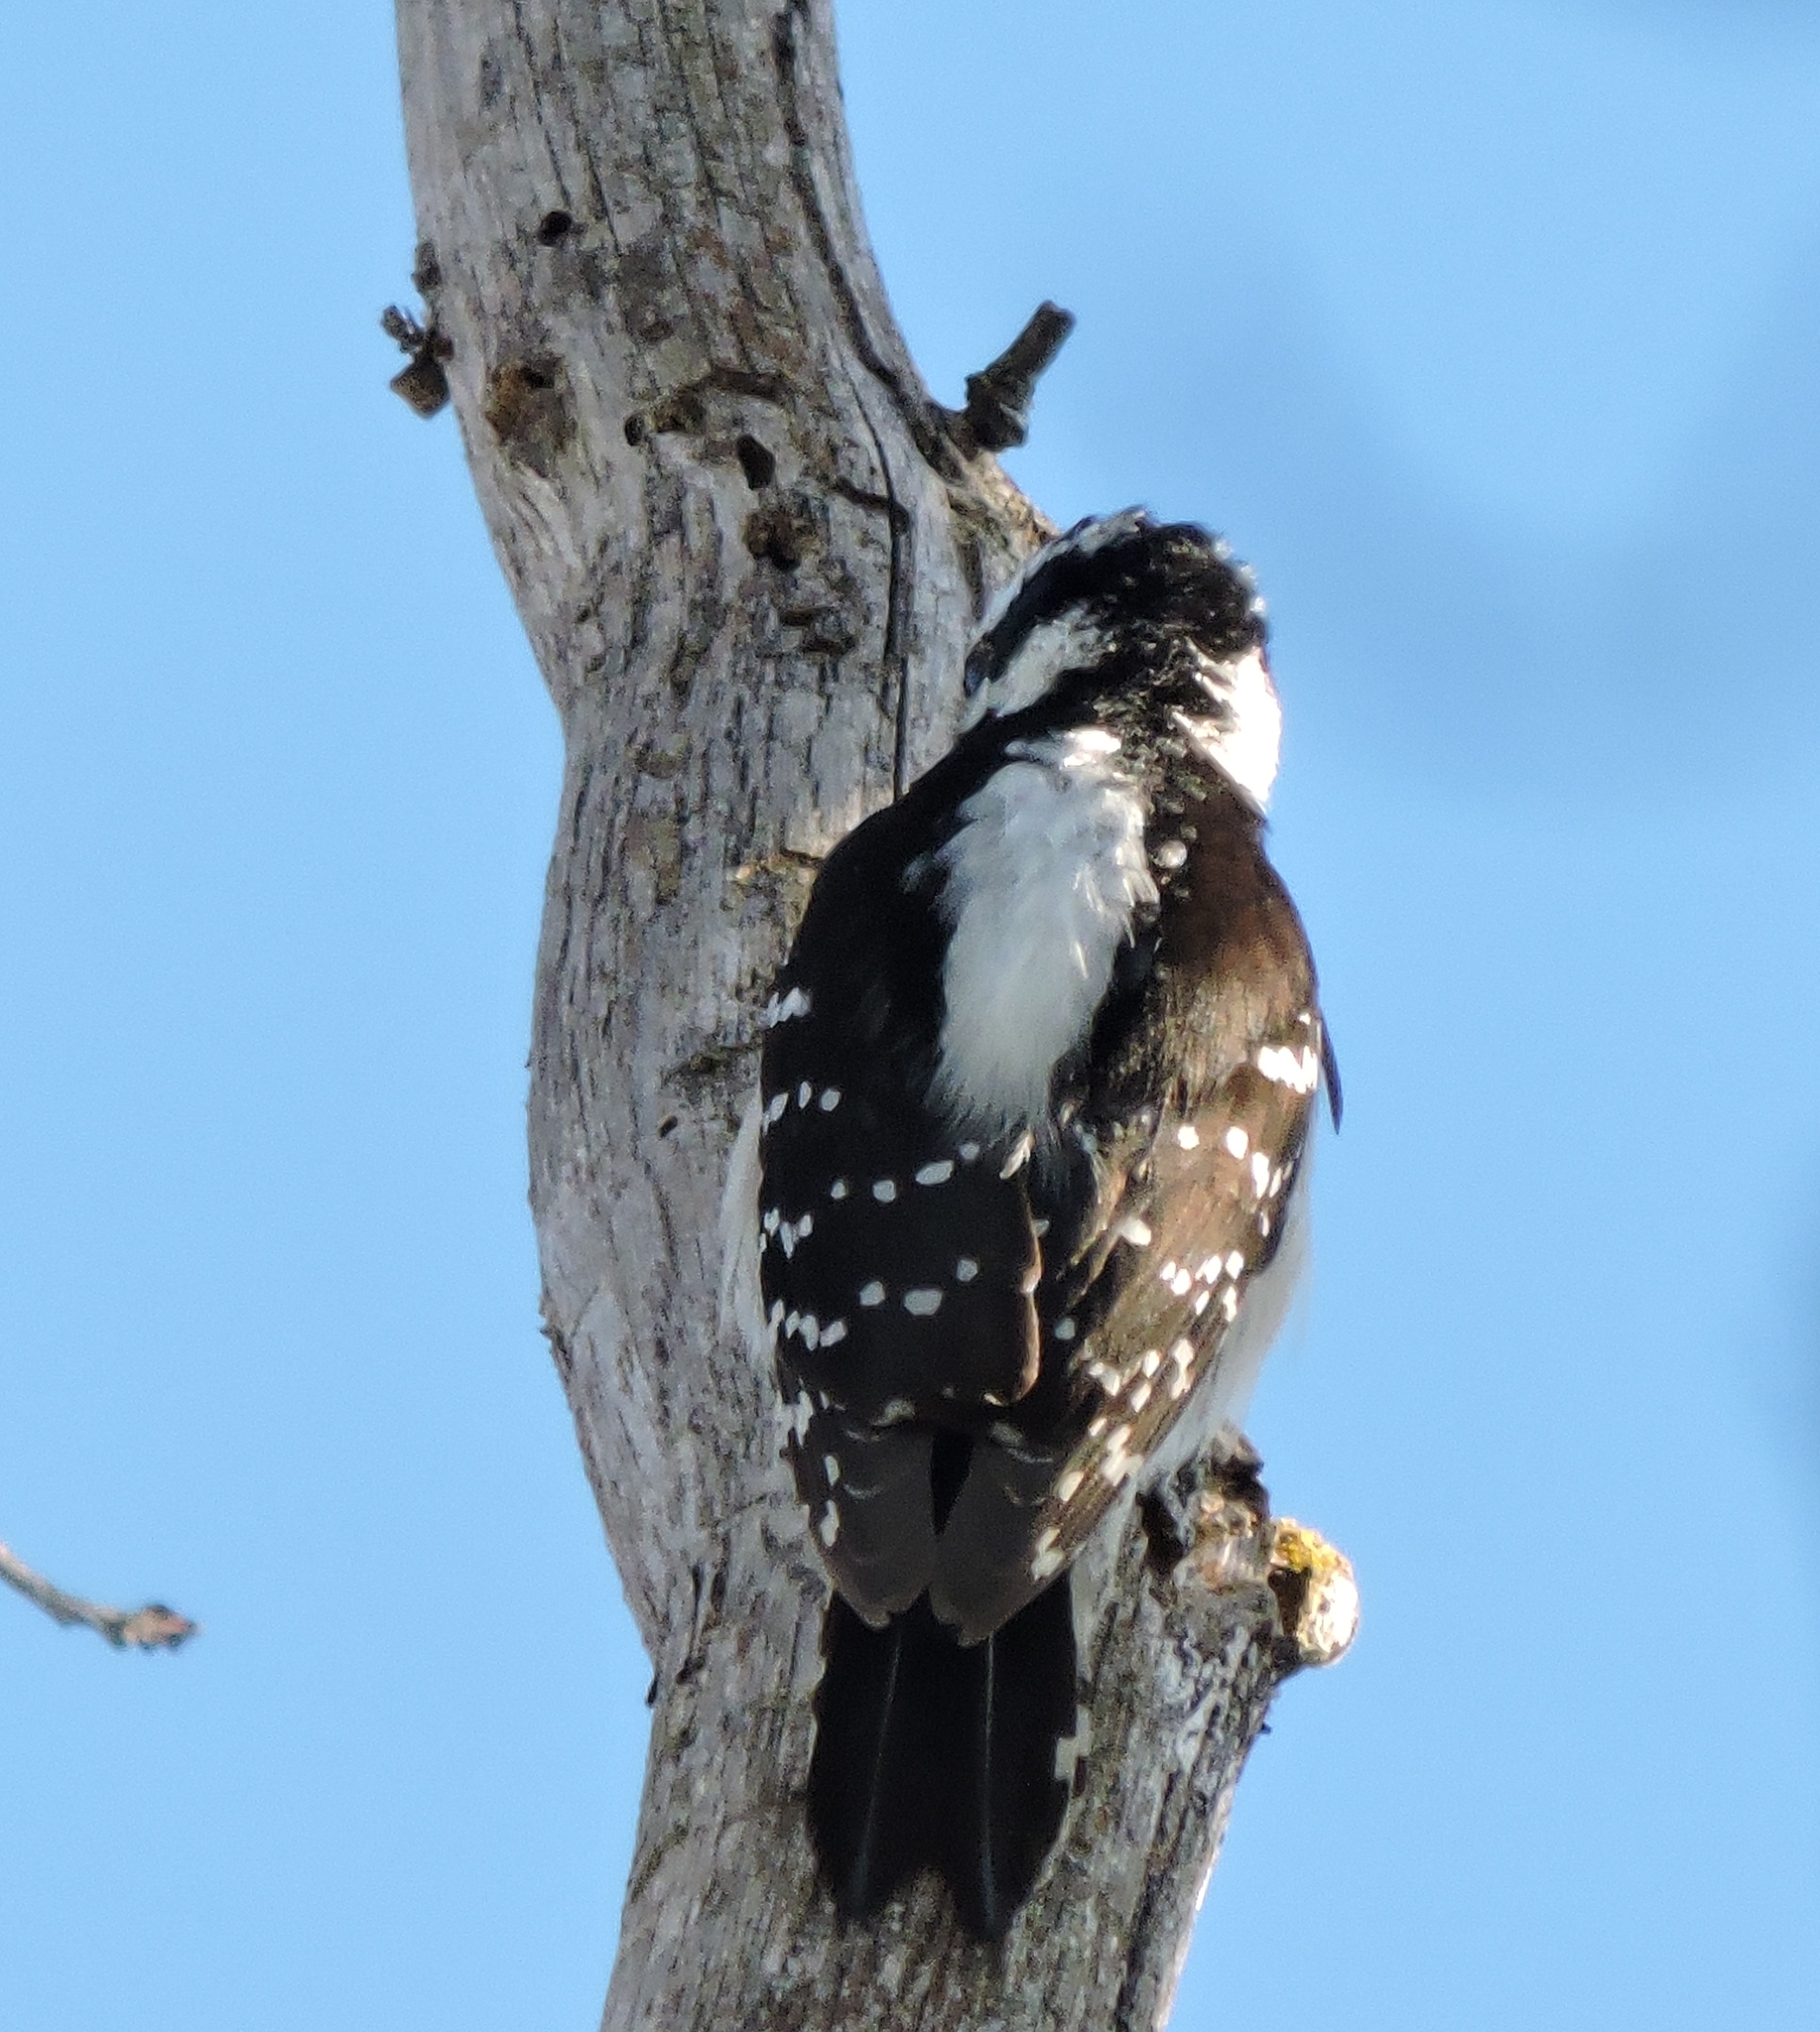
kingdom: Animalia
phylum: Chordata
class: Aves
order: Piciformes
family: Picidae
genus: Dryobates
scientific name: Dryobates pubescens
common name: Downy woodpecker
